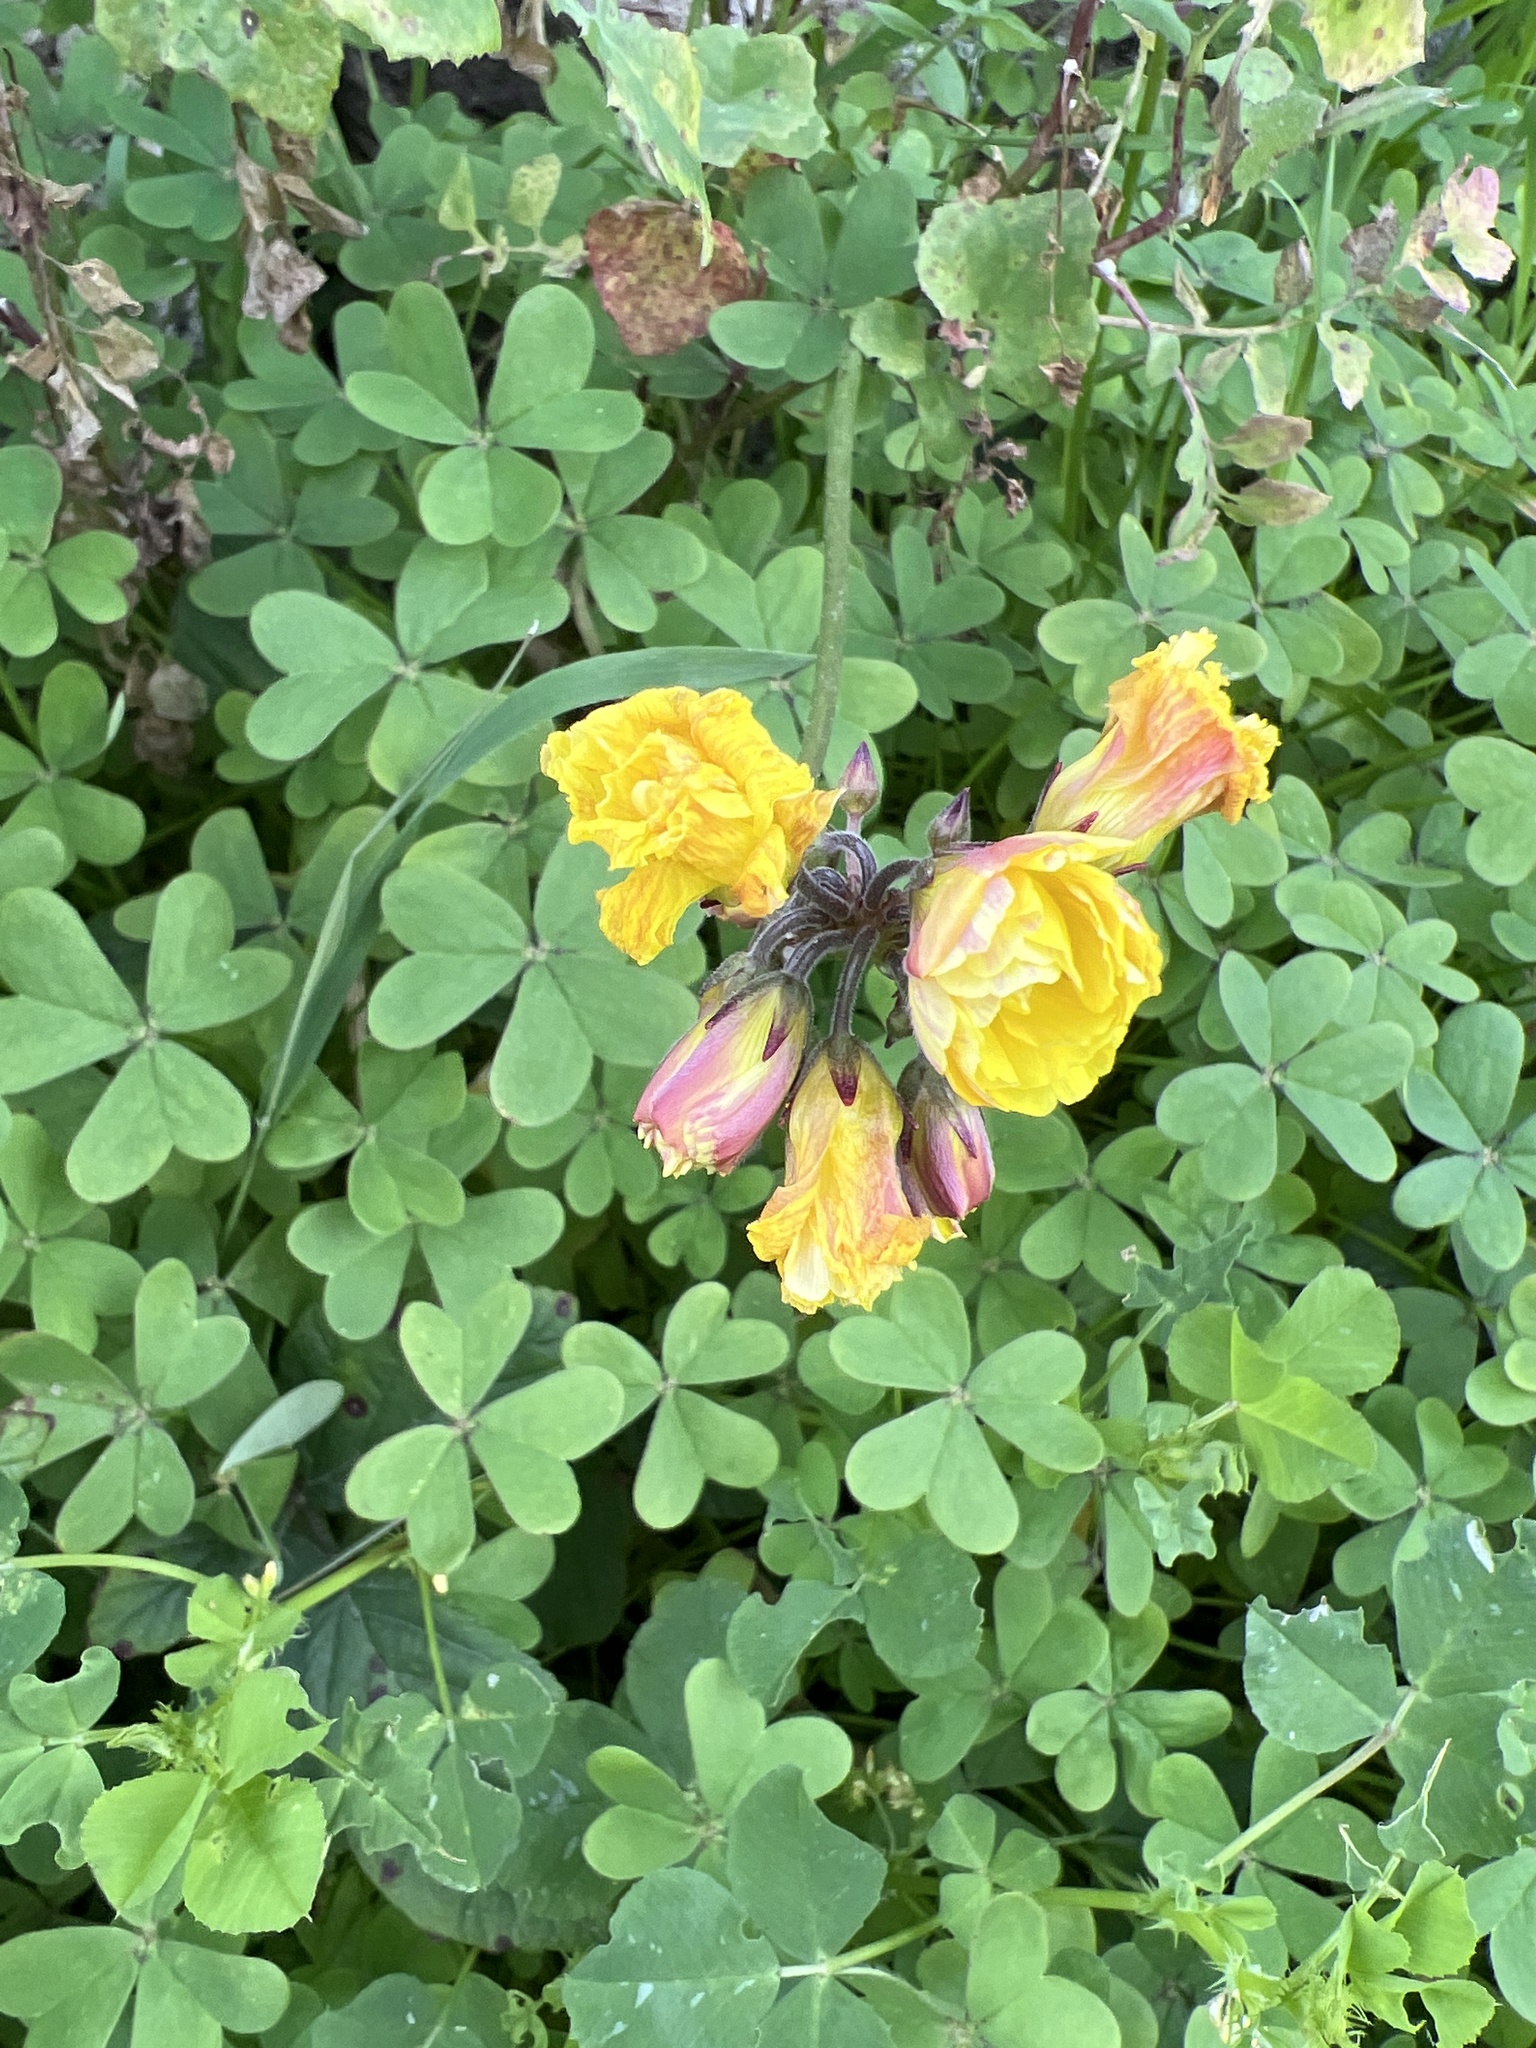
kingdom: Plantae
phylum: Tracheophyta
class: Magnoliopsida
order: Oxalidales
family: Oxalidaceae
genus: Oxalis
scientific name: Oxalis pes-caprae
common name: Bermuda-buttercup
